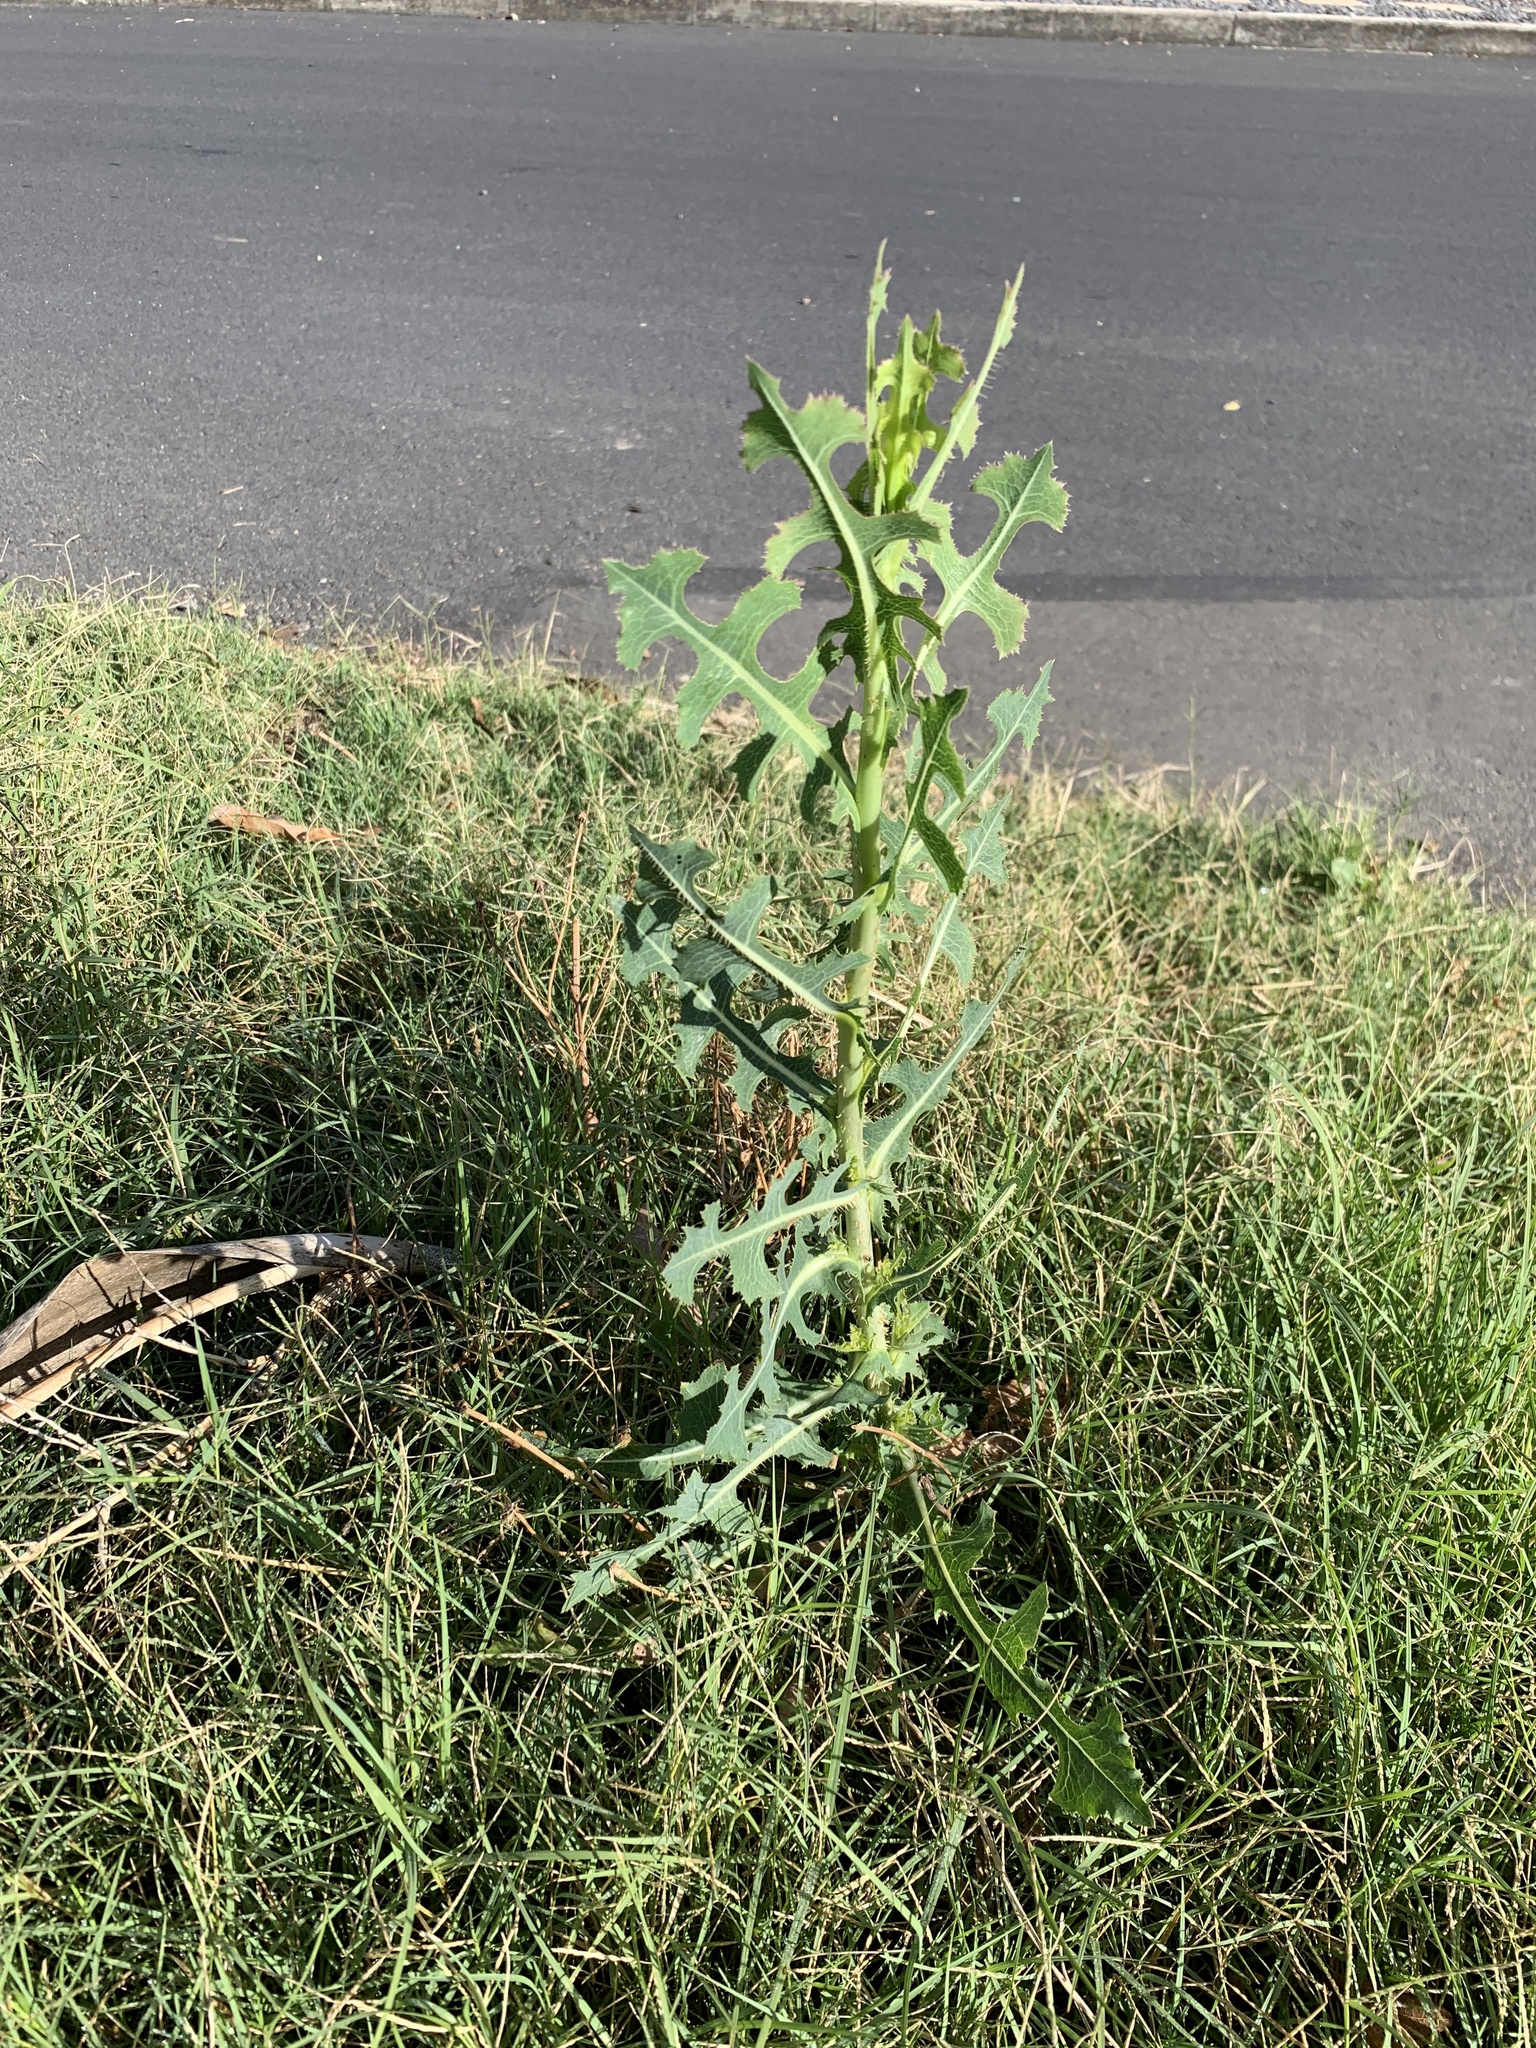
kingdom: Plantae
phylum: Tracheophyta
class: Magnoliopsida
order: Asterales
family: Asteraceae
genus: Lactuca
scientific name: Lactuca serriola
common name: Prickly lettuce
